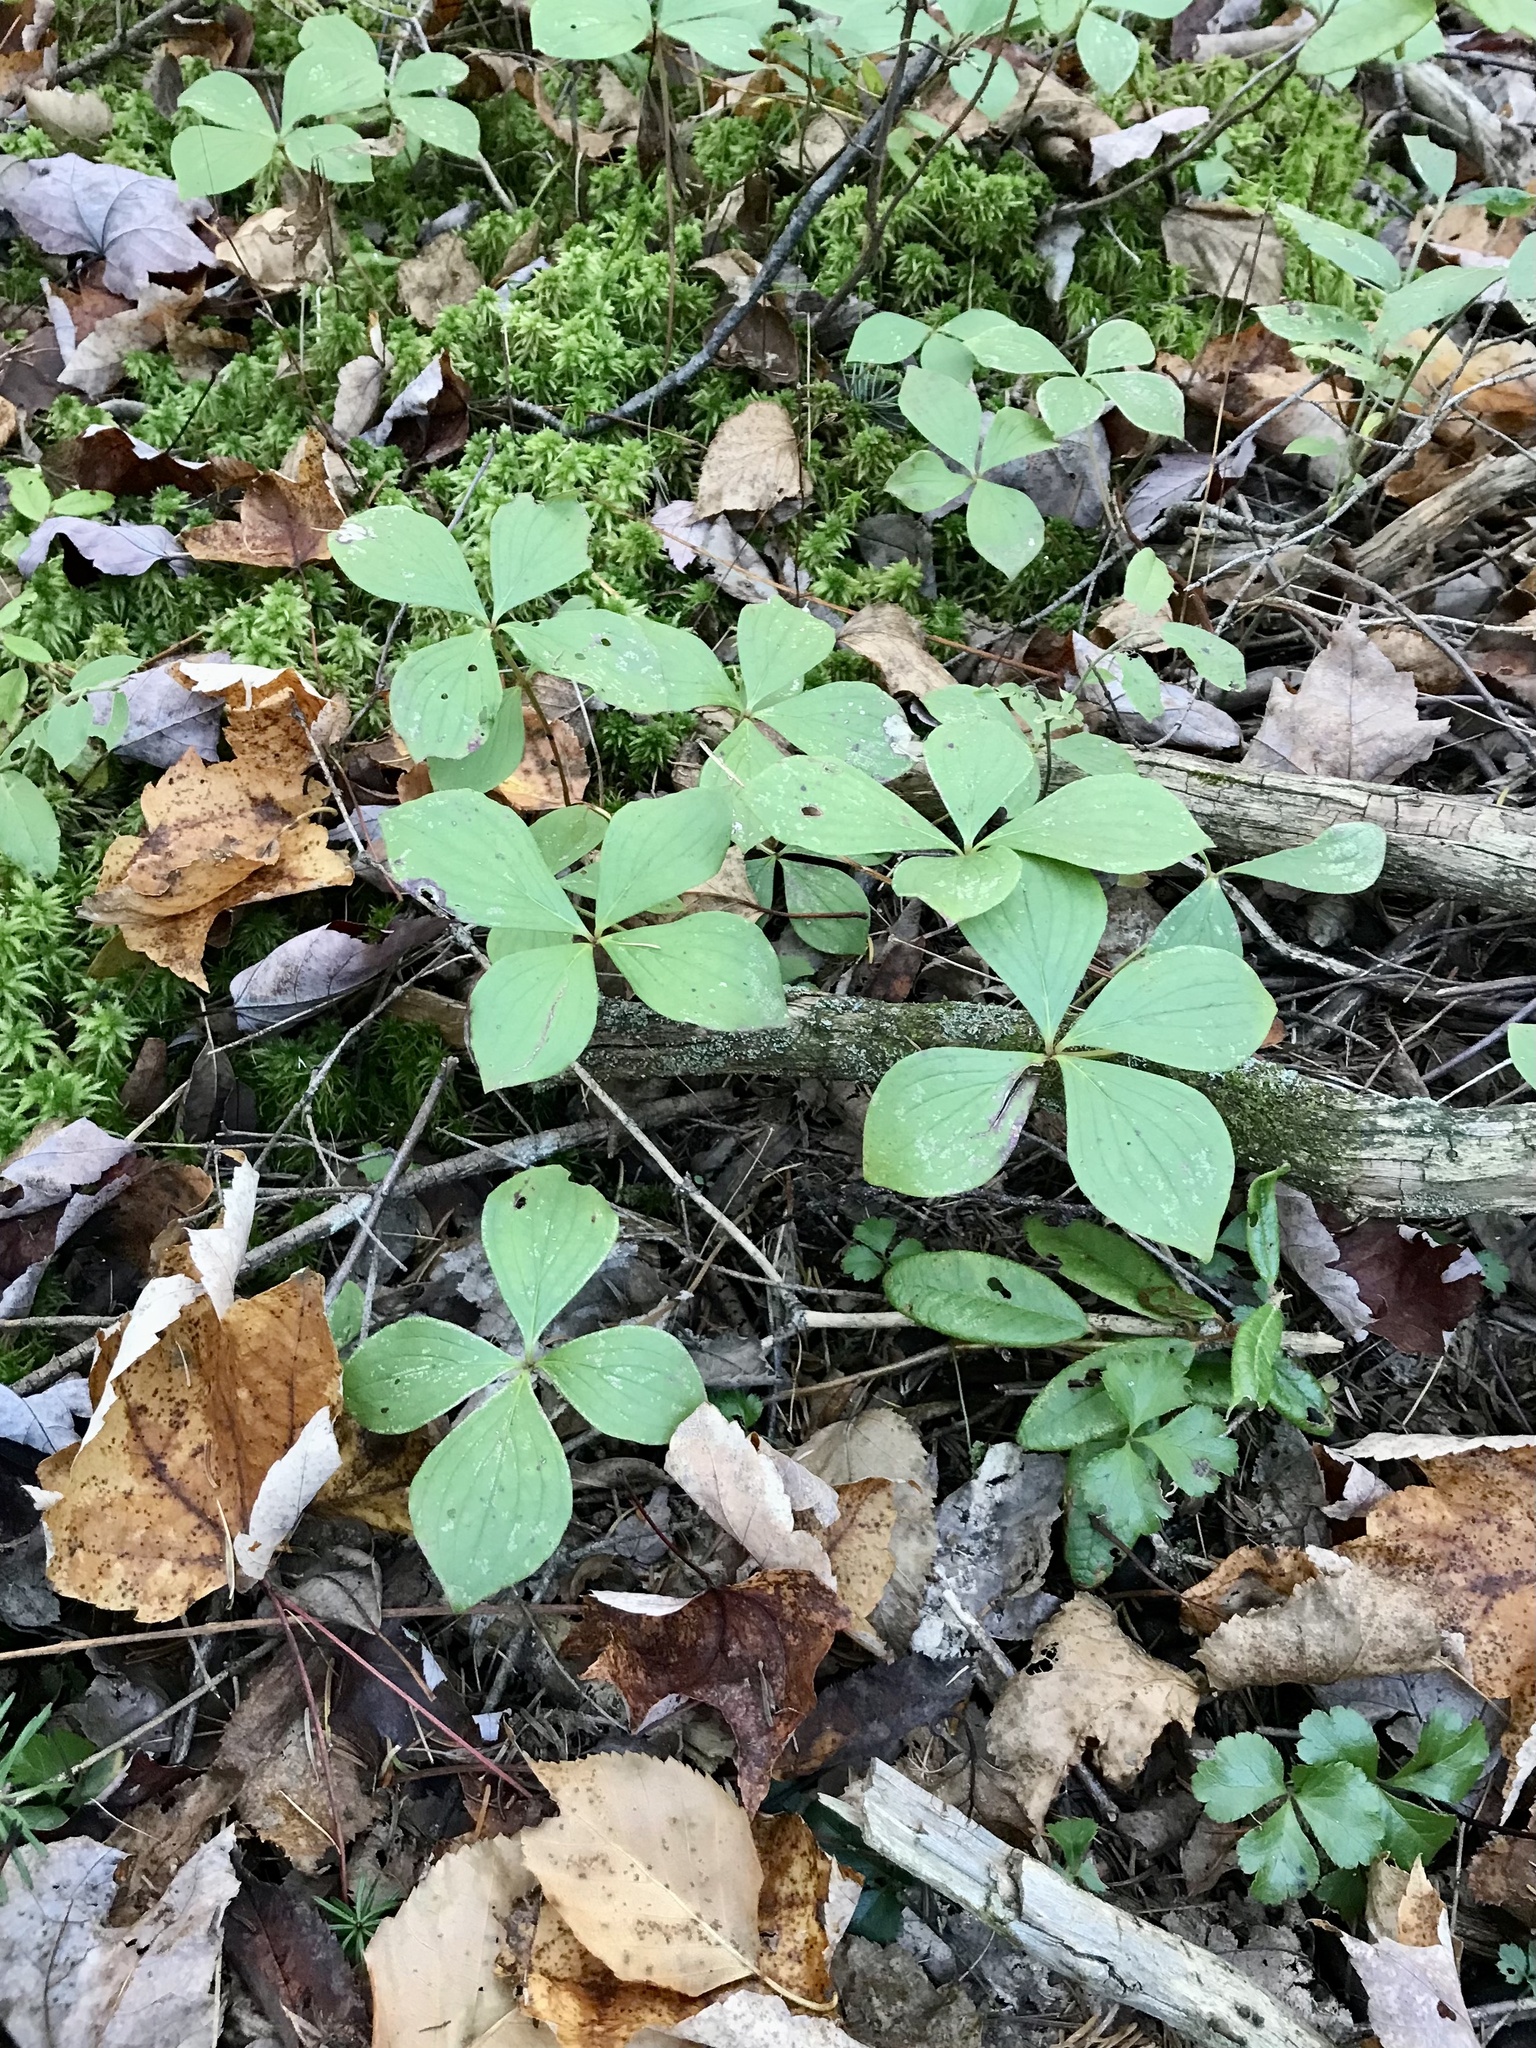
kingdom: Plantae
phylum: Tracheophyta
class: Magnoliopsida
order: Cornales
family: Cornaceae
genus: Cornus
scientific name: Cornus canadensis
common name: Creeping dogwood
